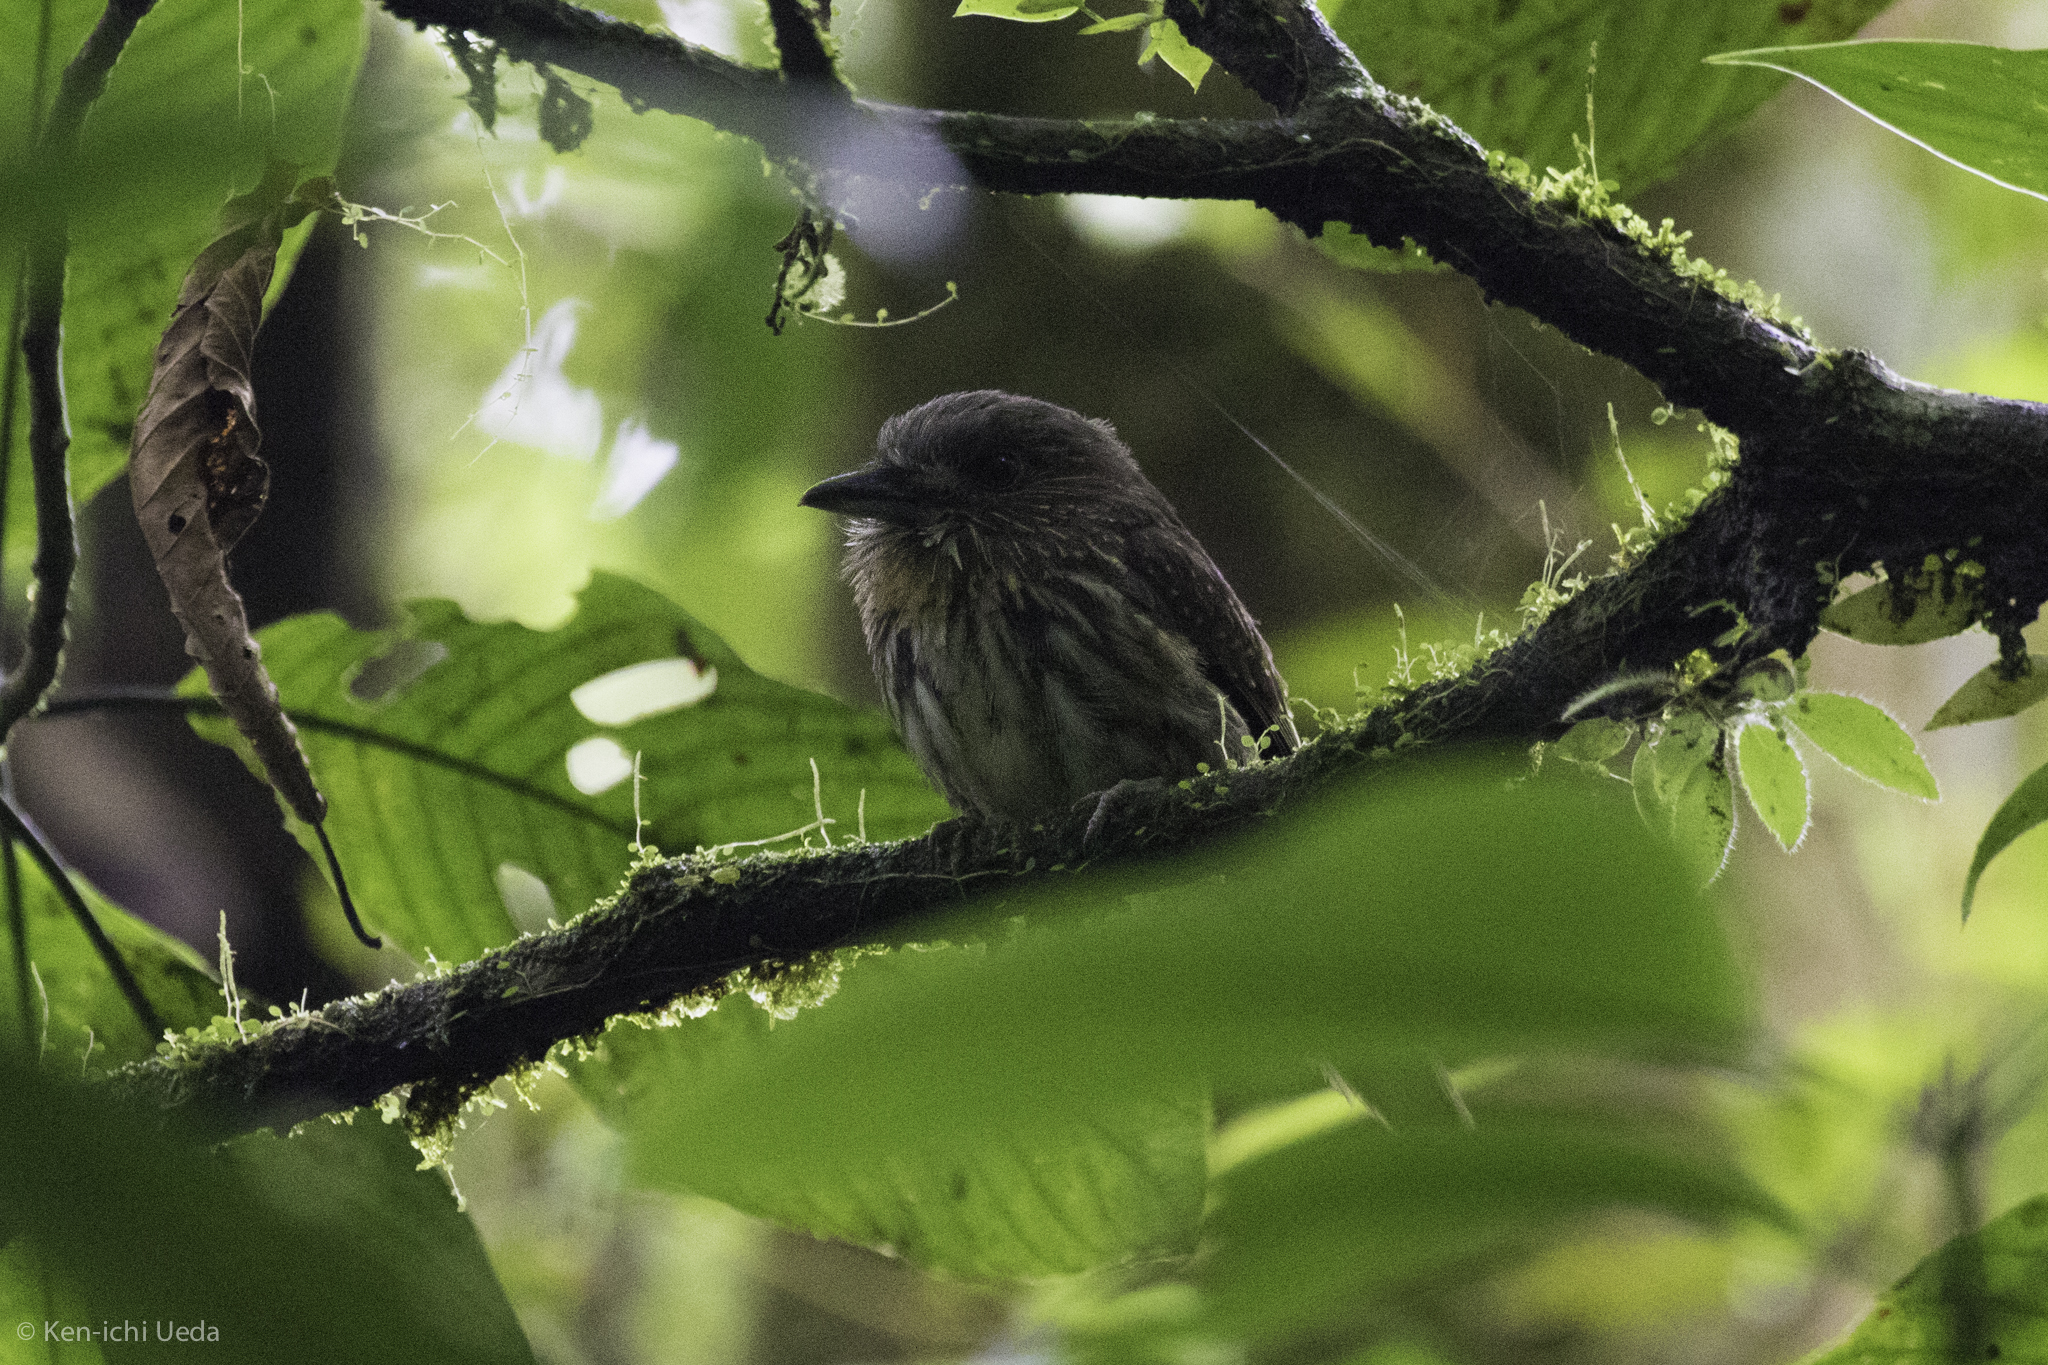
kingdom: Animalia
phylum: Chordata
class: Aves
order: Piciformes
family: Bucconidae
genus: Malacoptila
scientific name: Malacoptila panamensis
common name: White-whiskered puffbird
